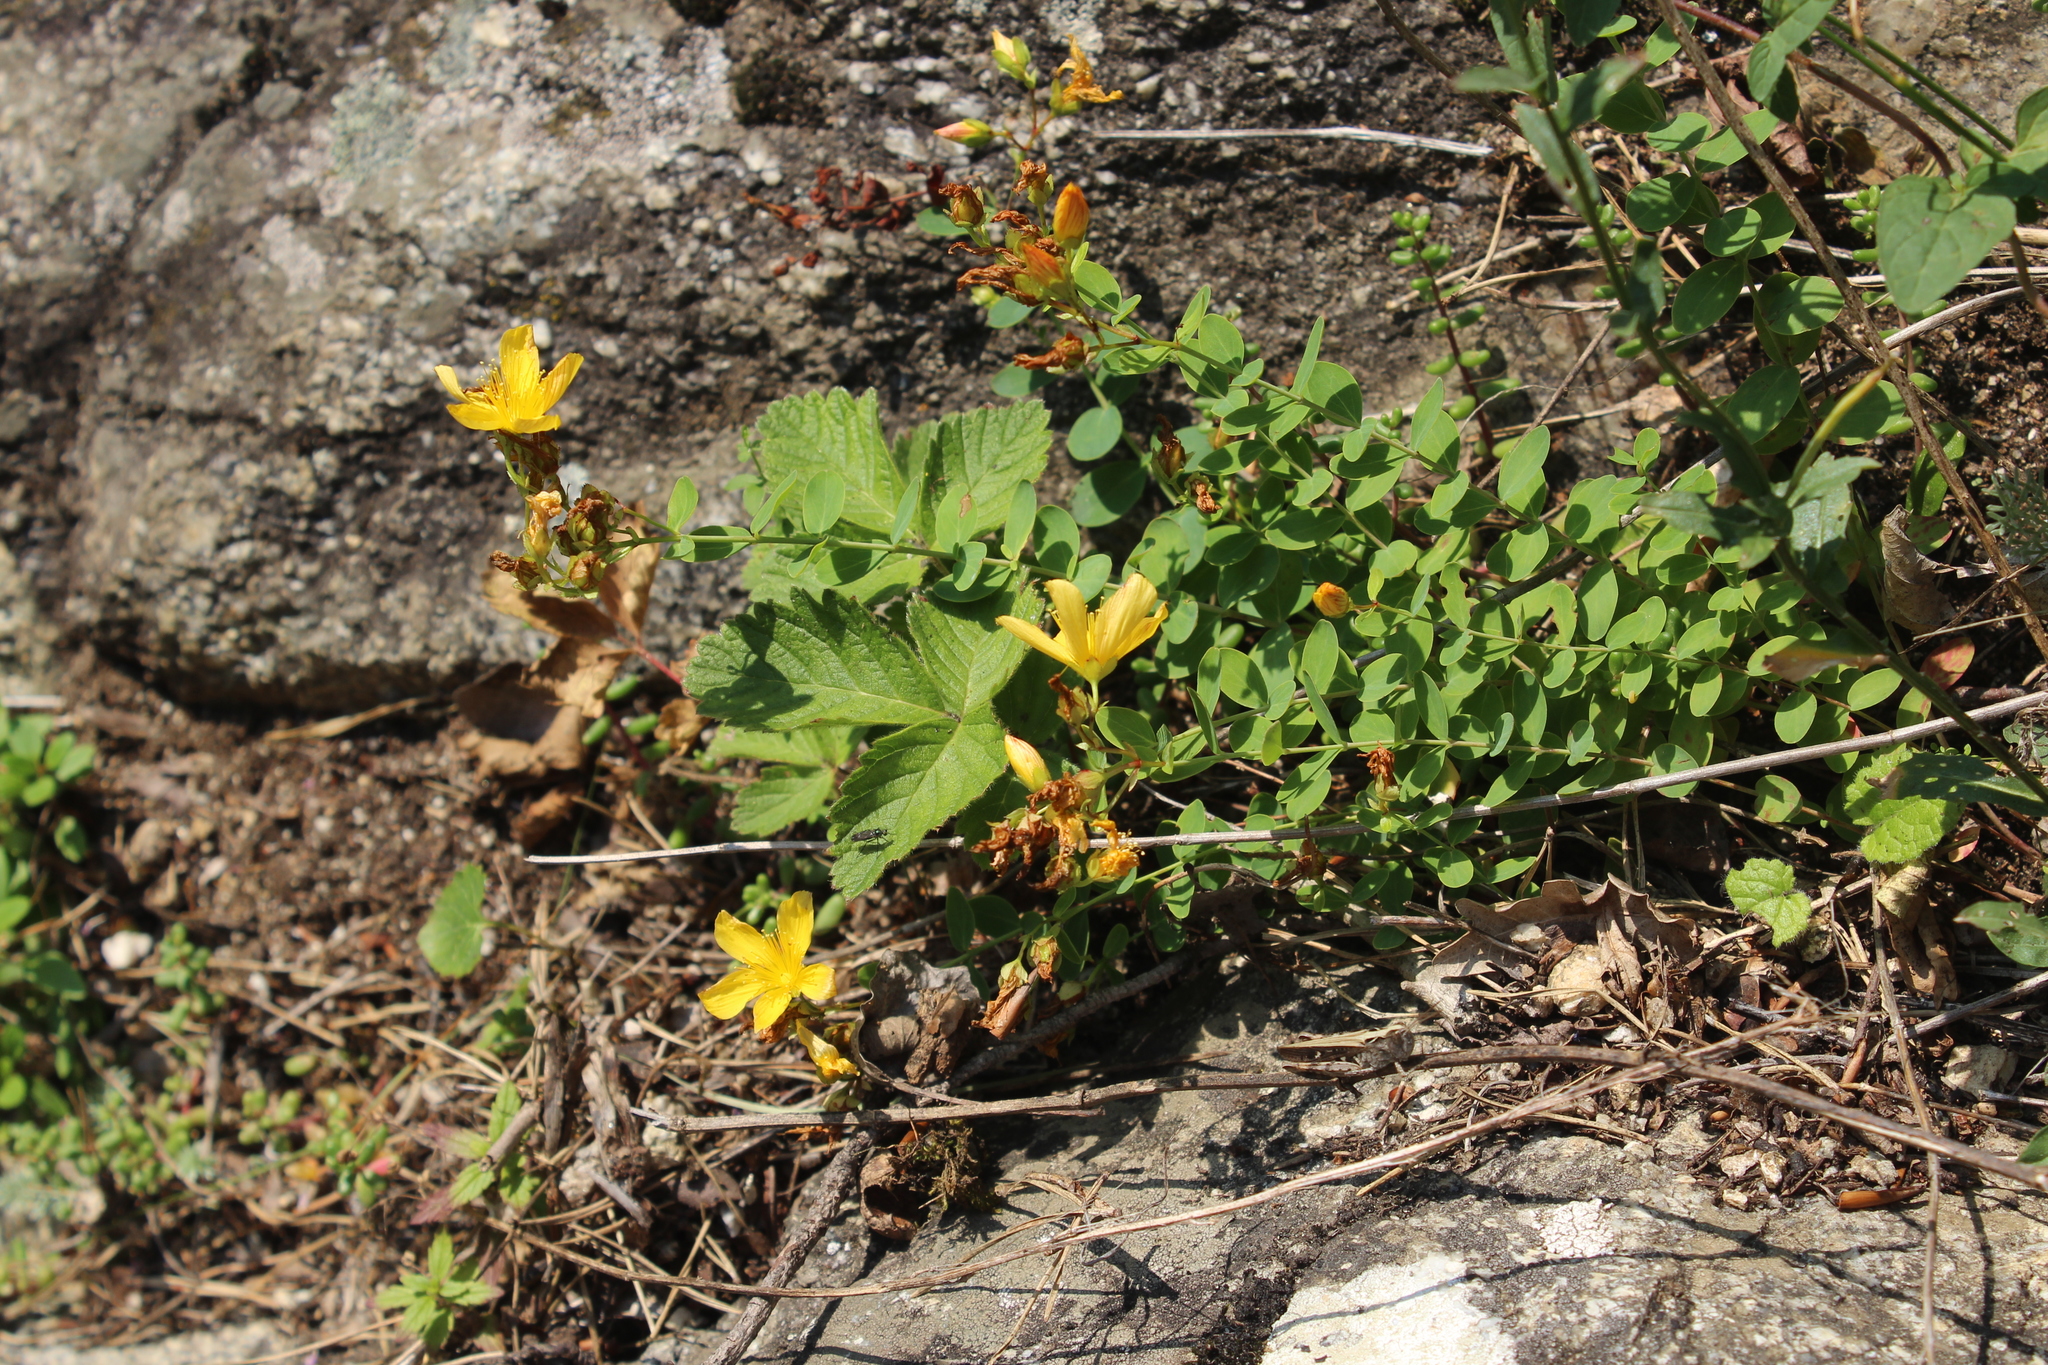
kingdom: Plantae
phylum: Tracheophyta
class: Magnoliopsida
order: Malpighiales
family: Hypericaceae
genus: Hypericum
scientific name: Hypericum nummularioides
